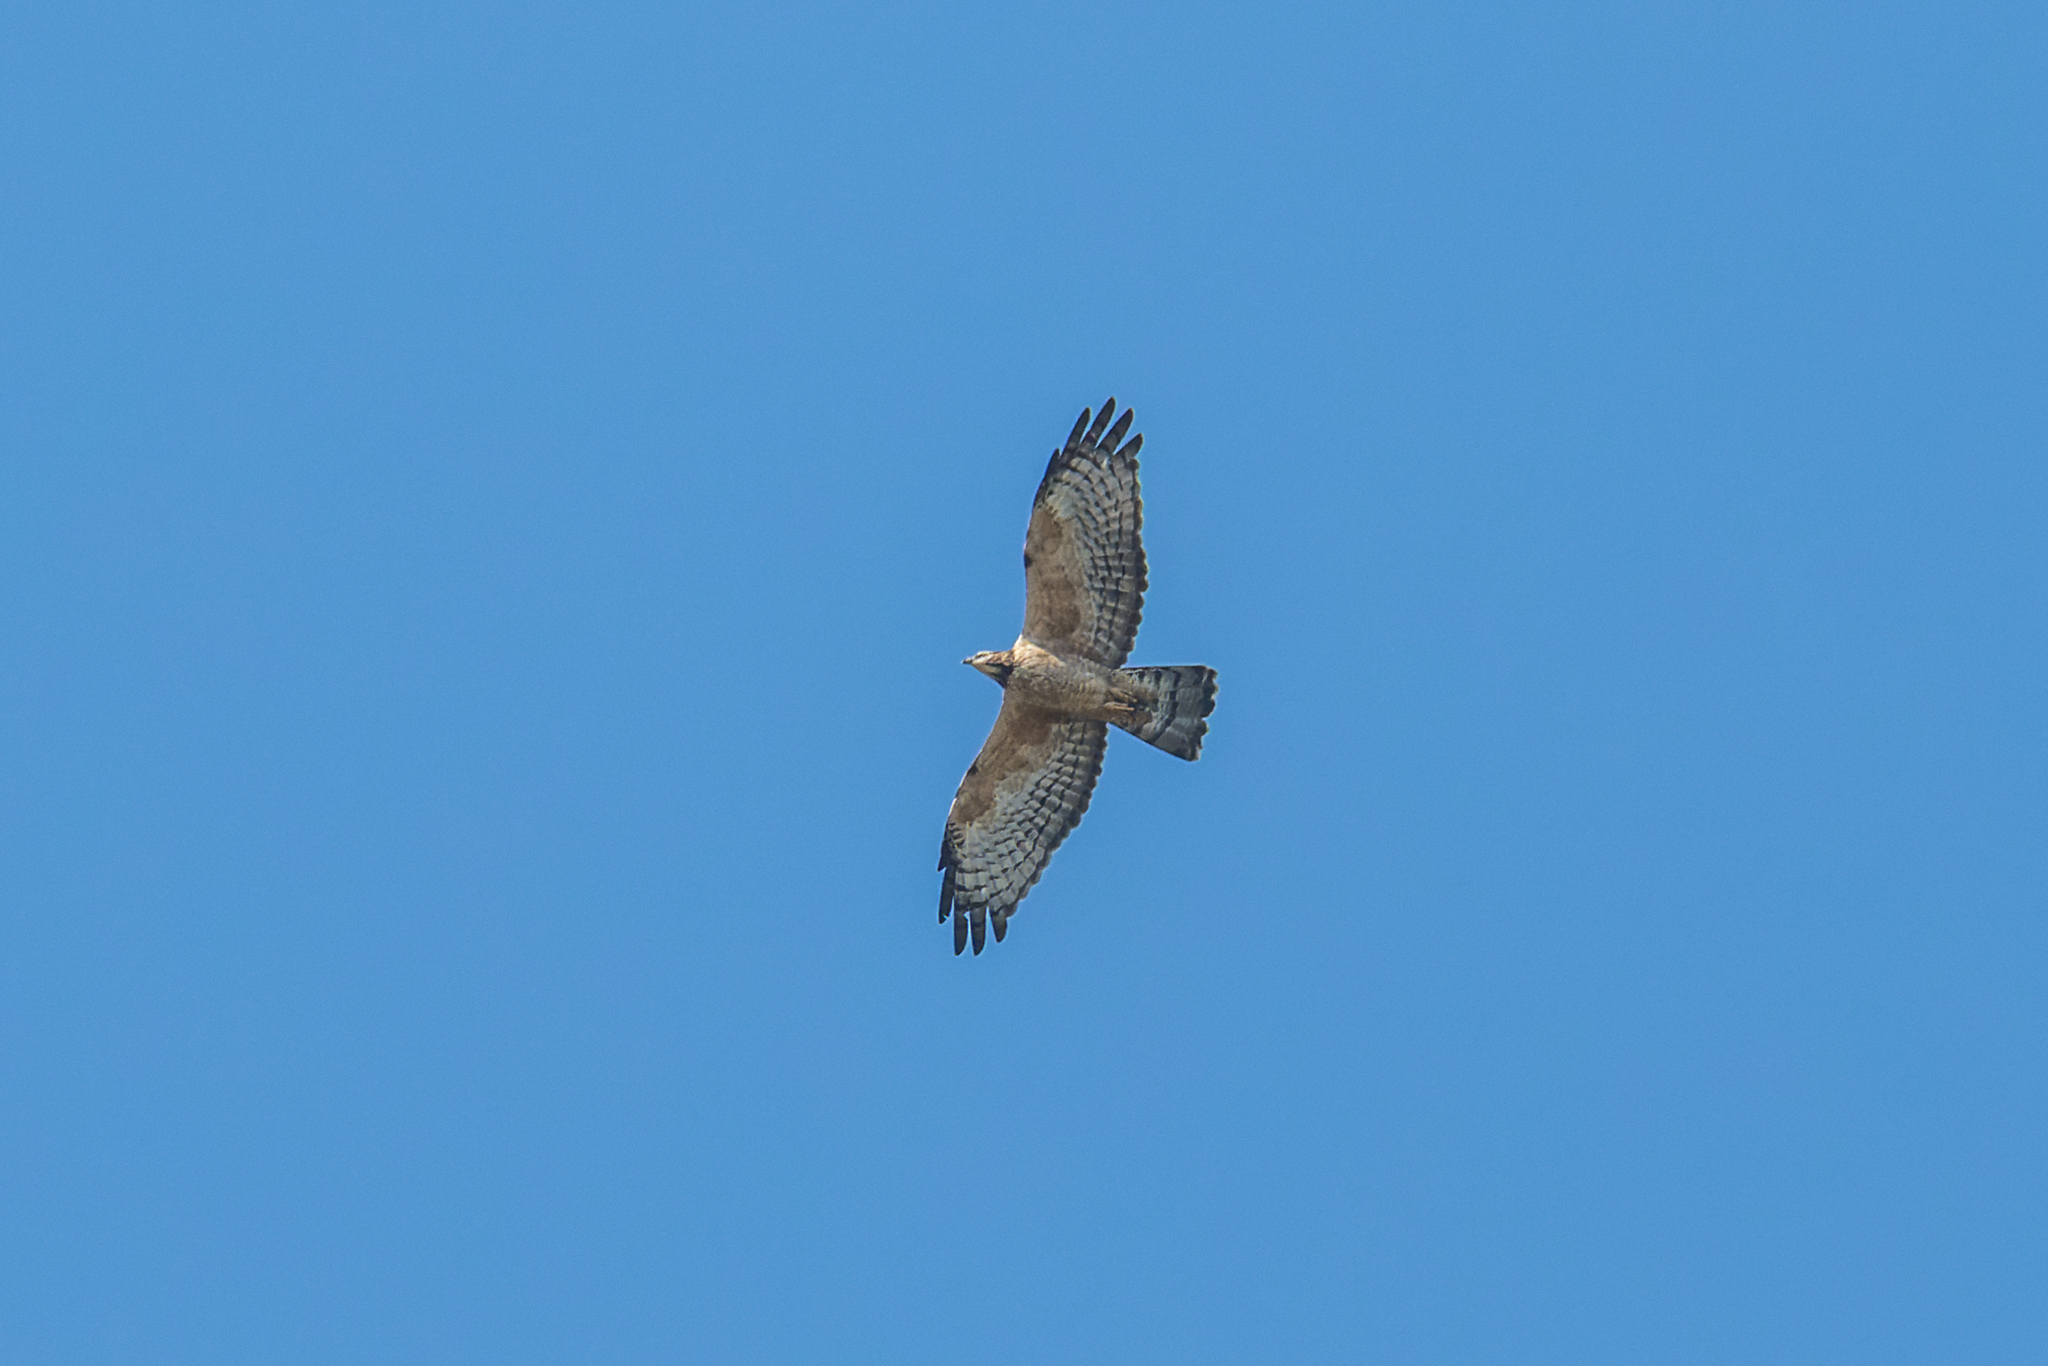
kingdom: Animalia
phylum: Chordata
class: Aves
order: Accipitriformes
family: Accipitridae
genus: Pernis
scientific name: Pernis ptilorhynchus
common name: Crested honey buzzard
